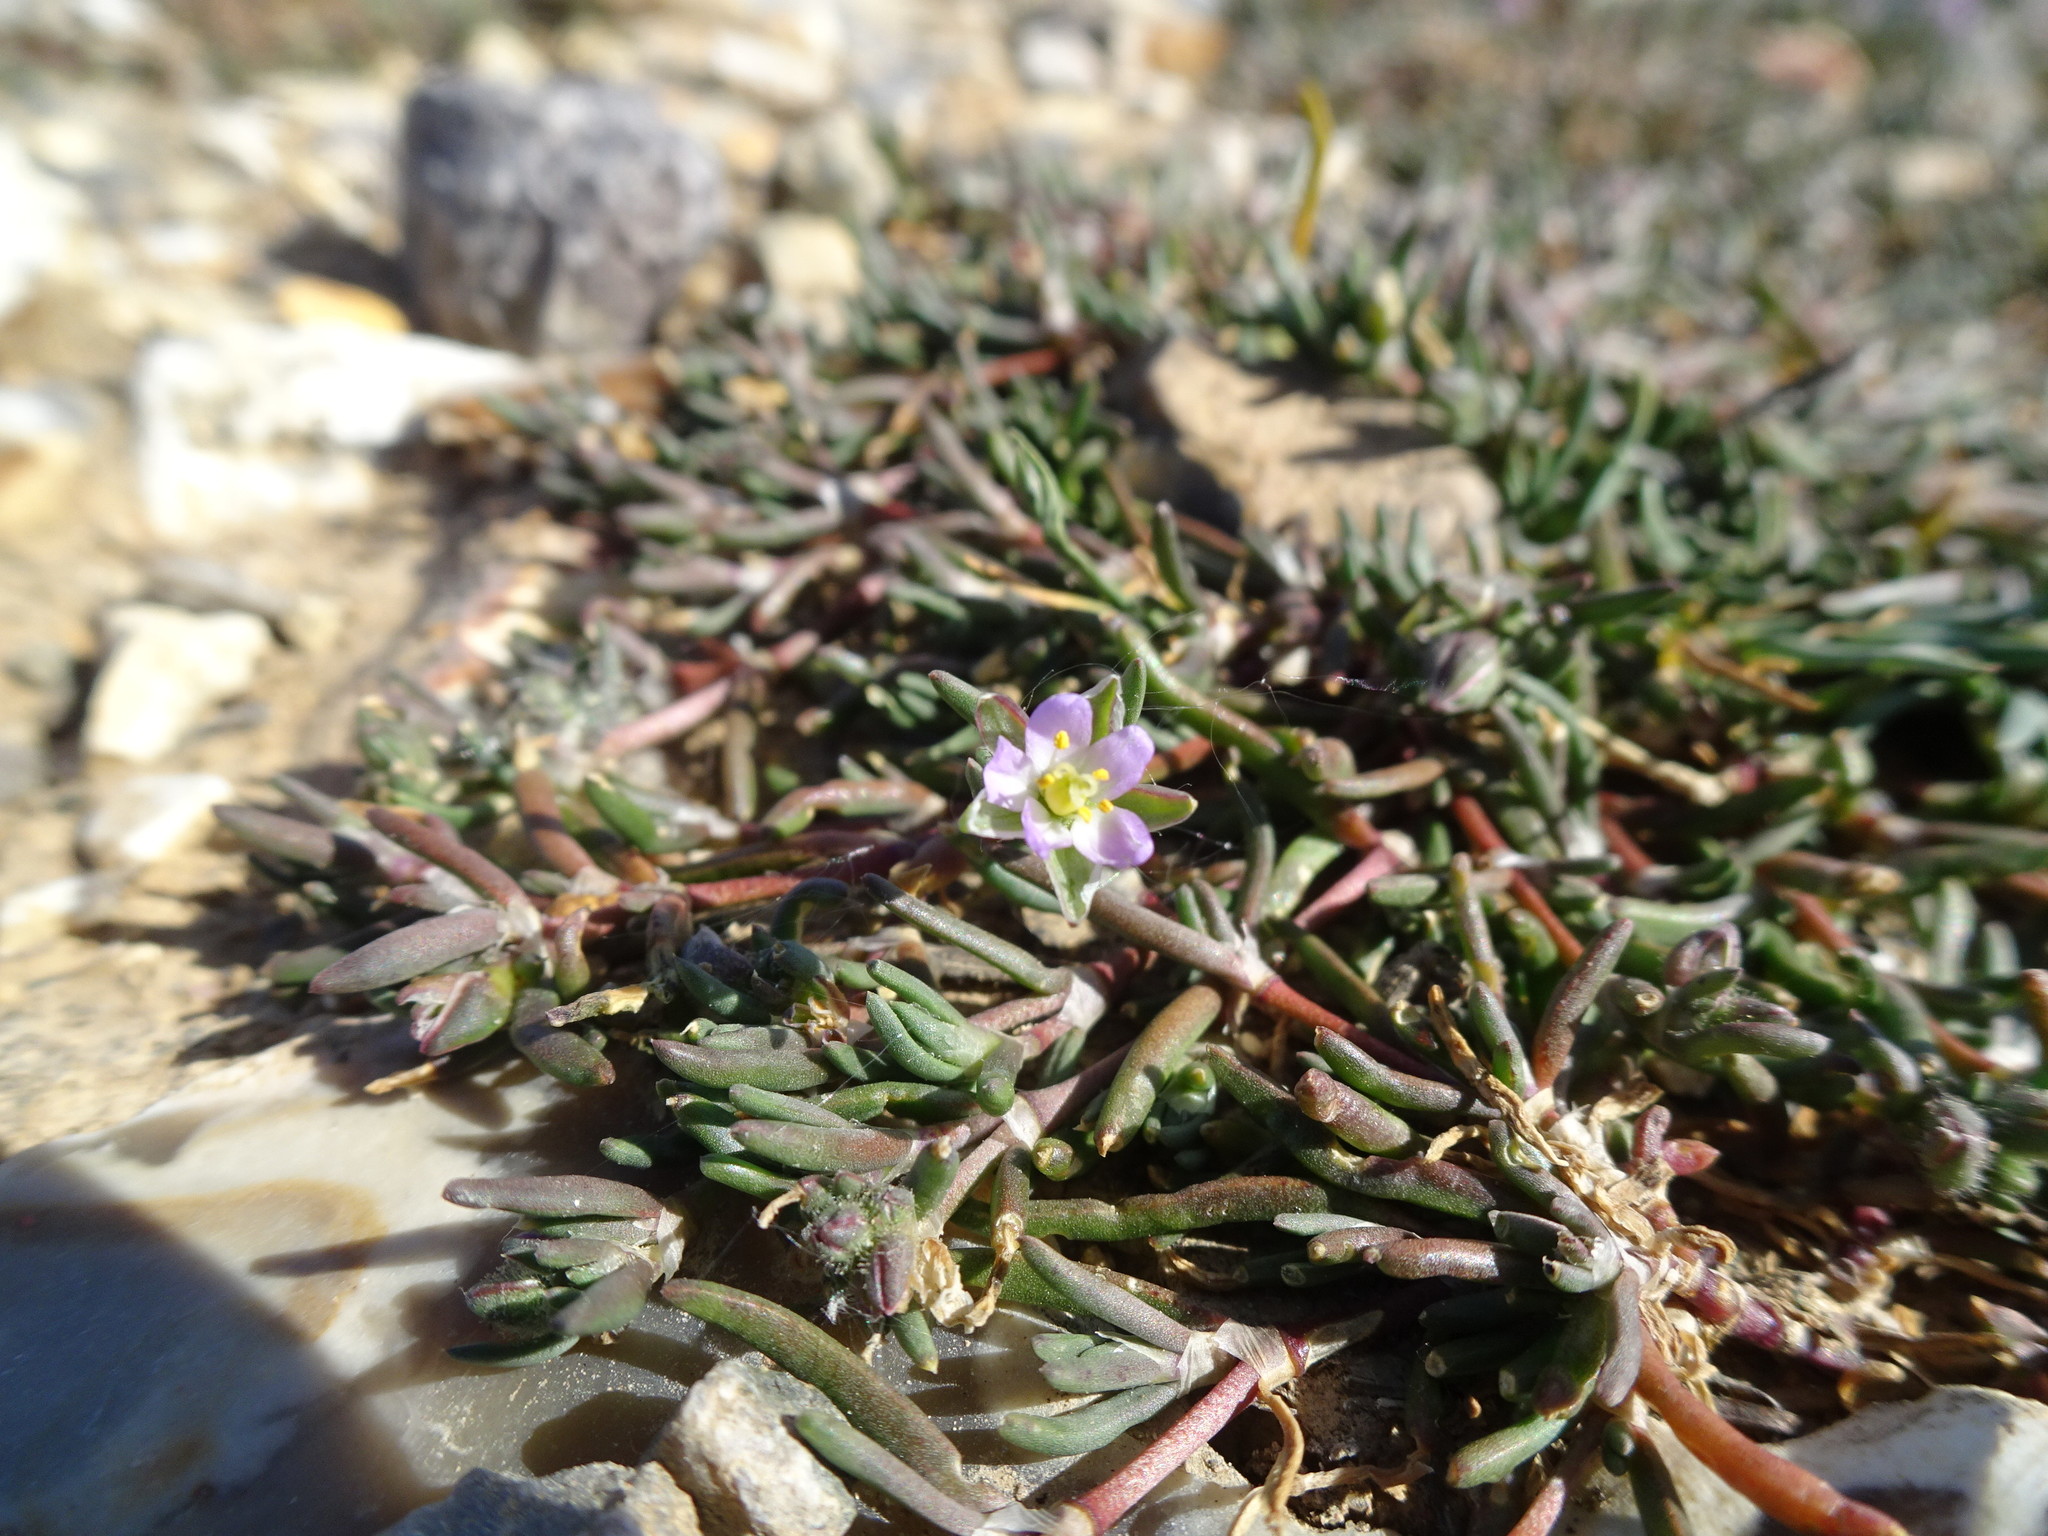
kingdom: Plantae
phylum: Tracheophyta
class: Magnoliopsida
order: Caryophyllales
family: Caryophyllaceae
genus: Spergularia
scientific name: Spergularia marina
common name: Lesser sea-spurrey
